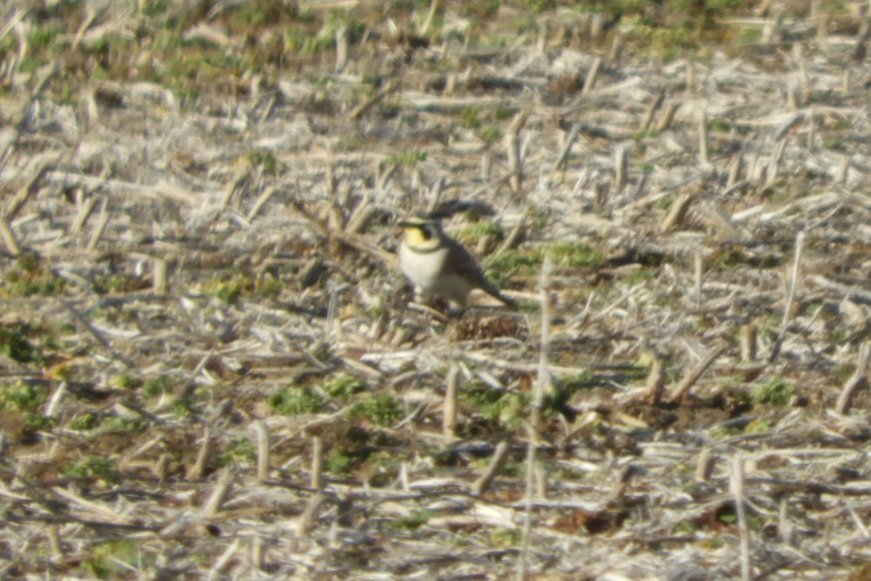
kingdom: Animalia
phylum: Chordata
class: Aves
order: Passeriformes
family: Alaudidae
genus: Eremophila
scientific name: Eremophila alpestris
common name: Horned lark
